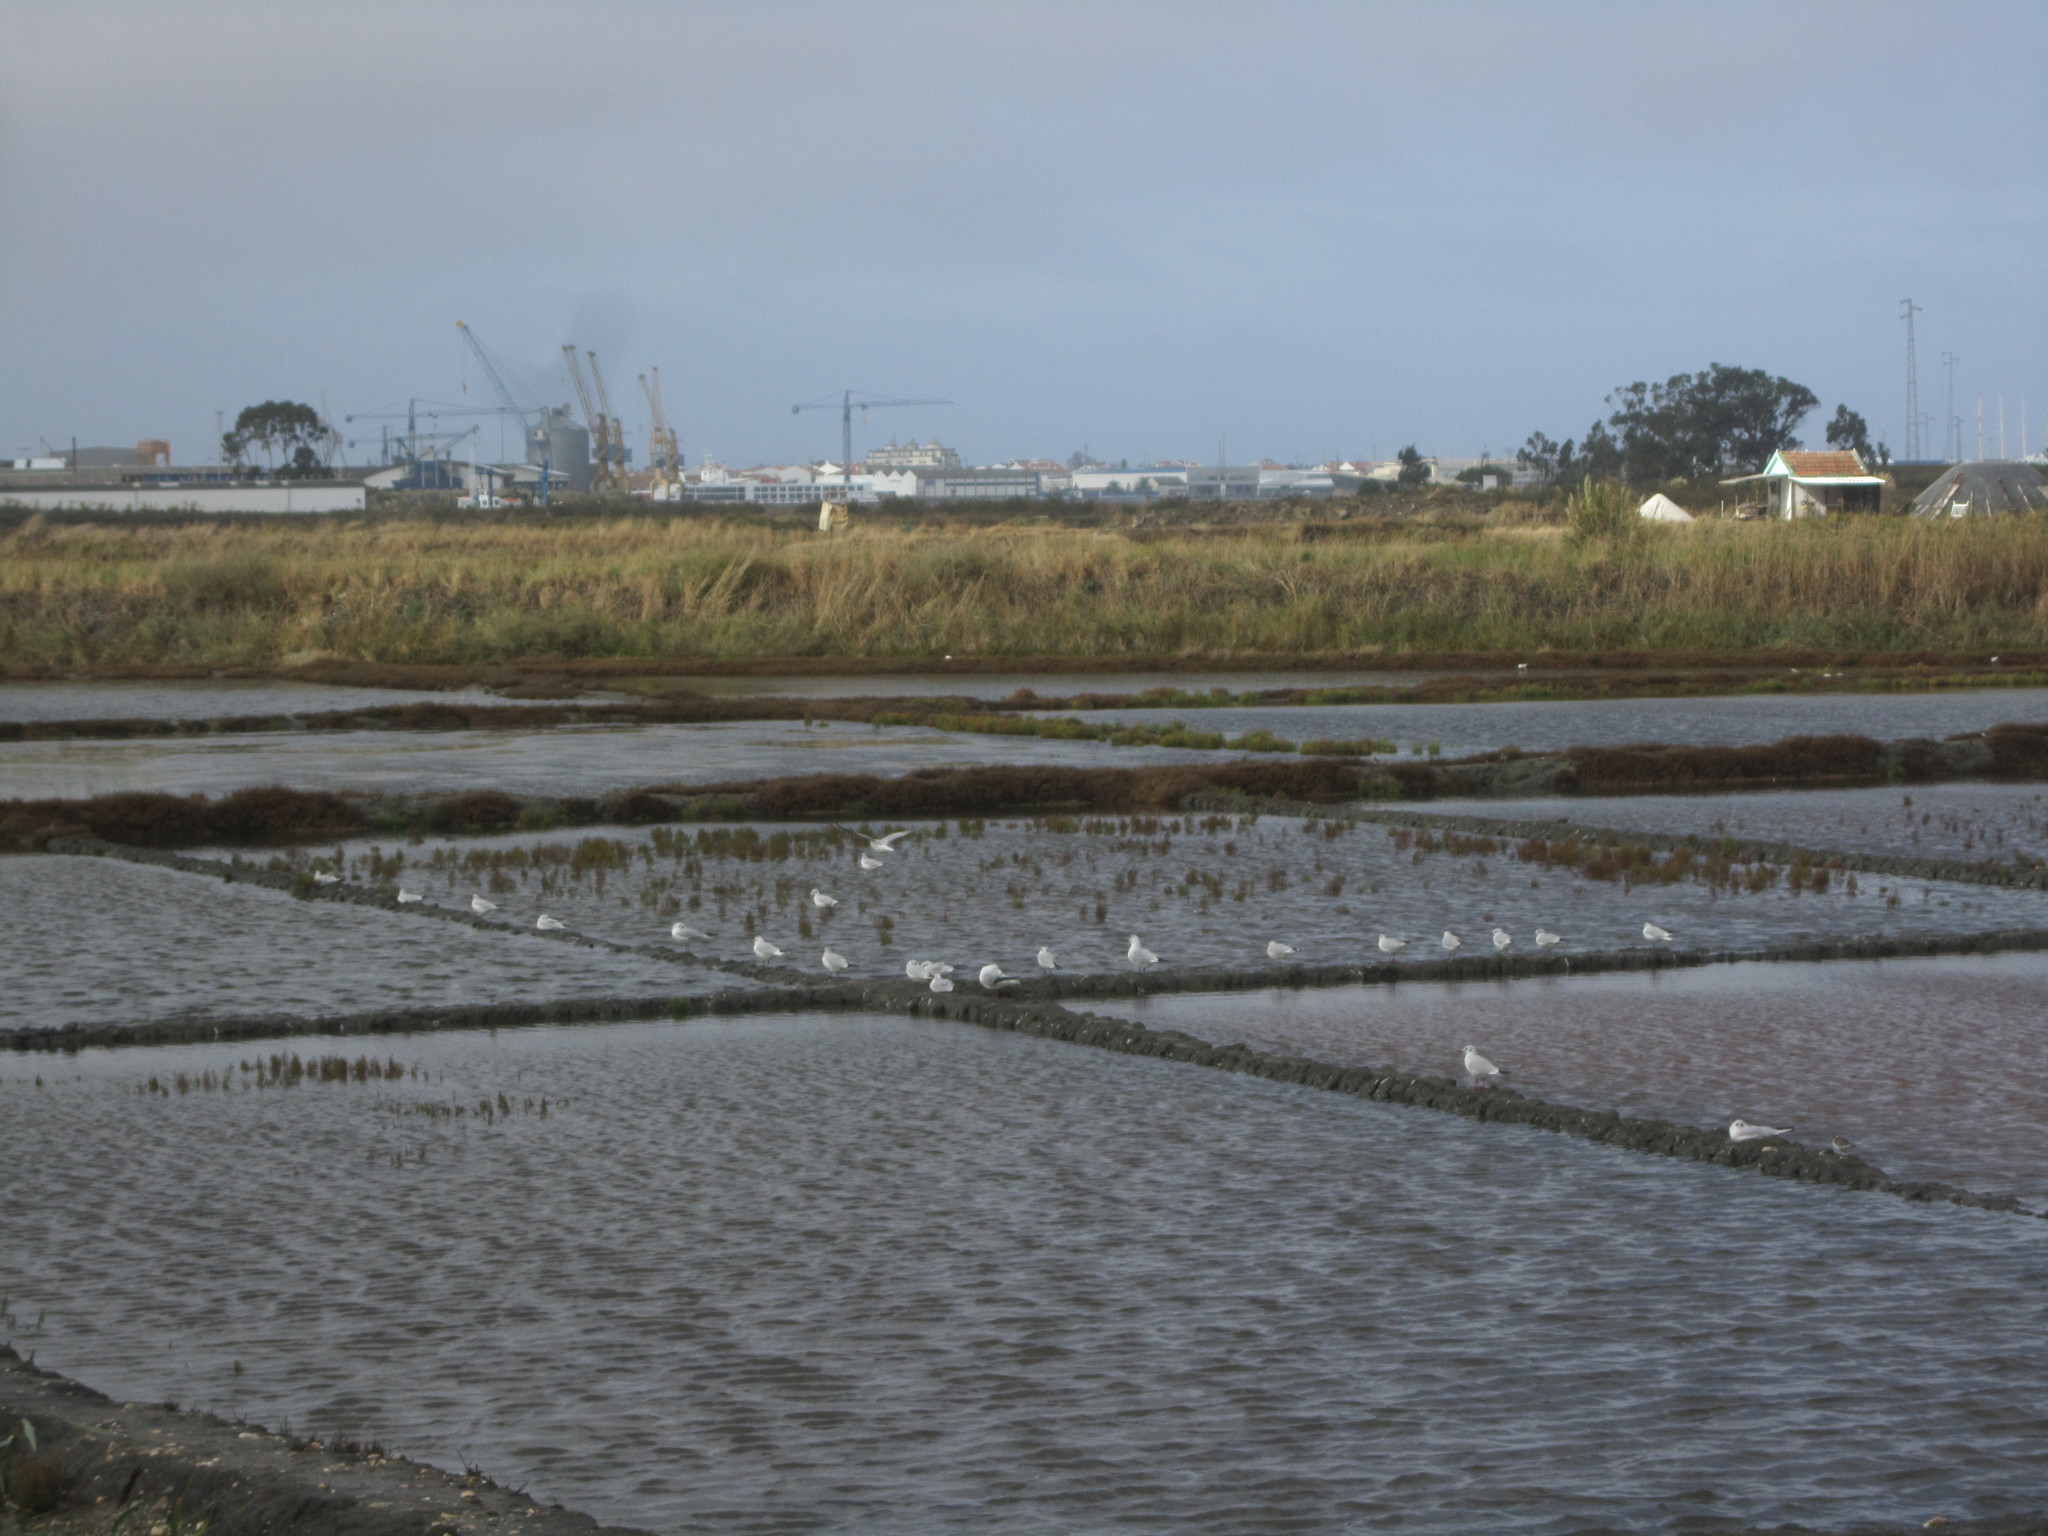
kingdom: Animalia
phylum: Chordata
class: Aves
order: Charadriiformes
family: Laridae
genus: Chroicocephalus
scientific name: Chroicocephalus ridibundus
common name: Black-headed gull
